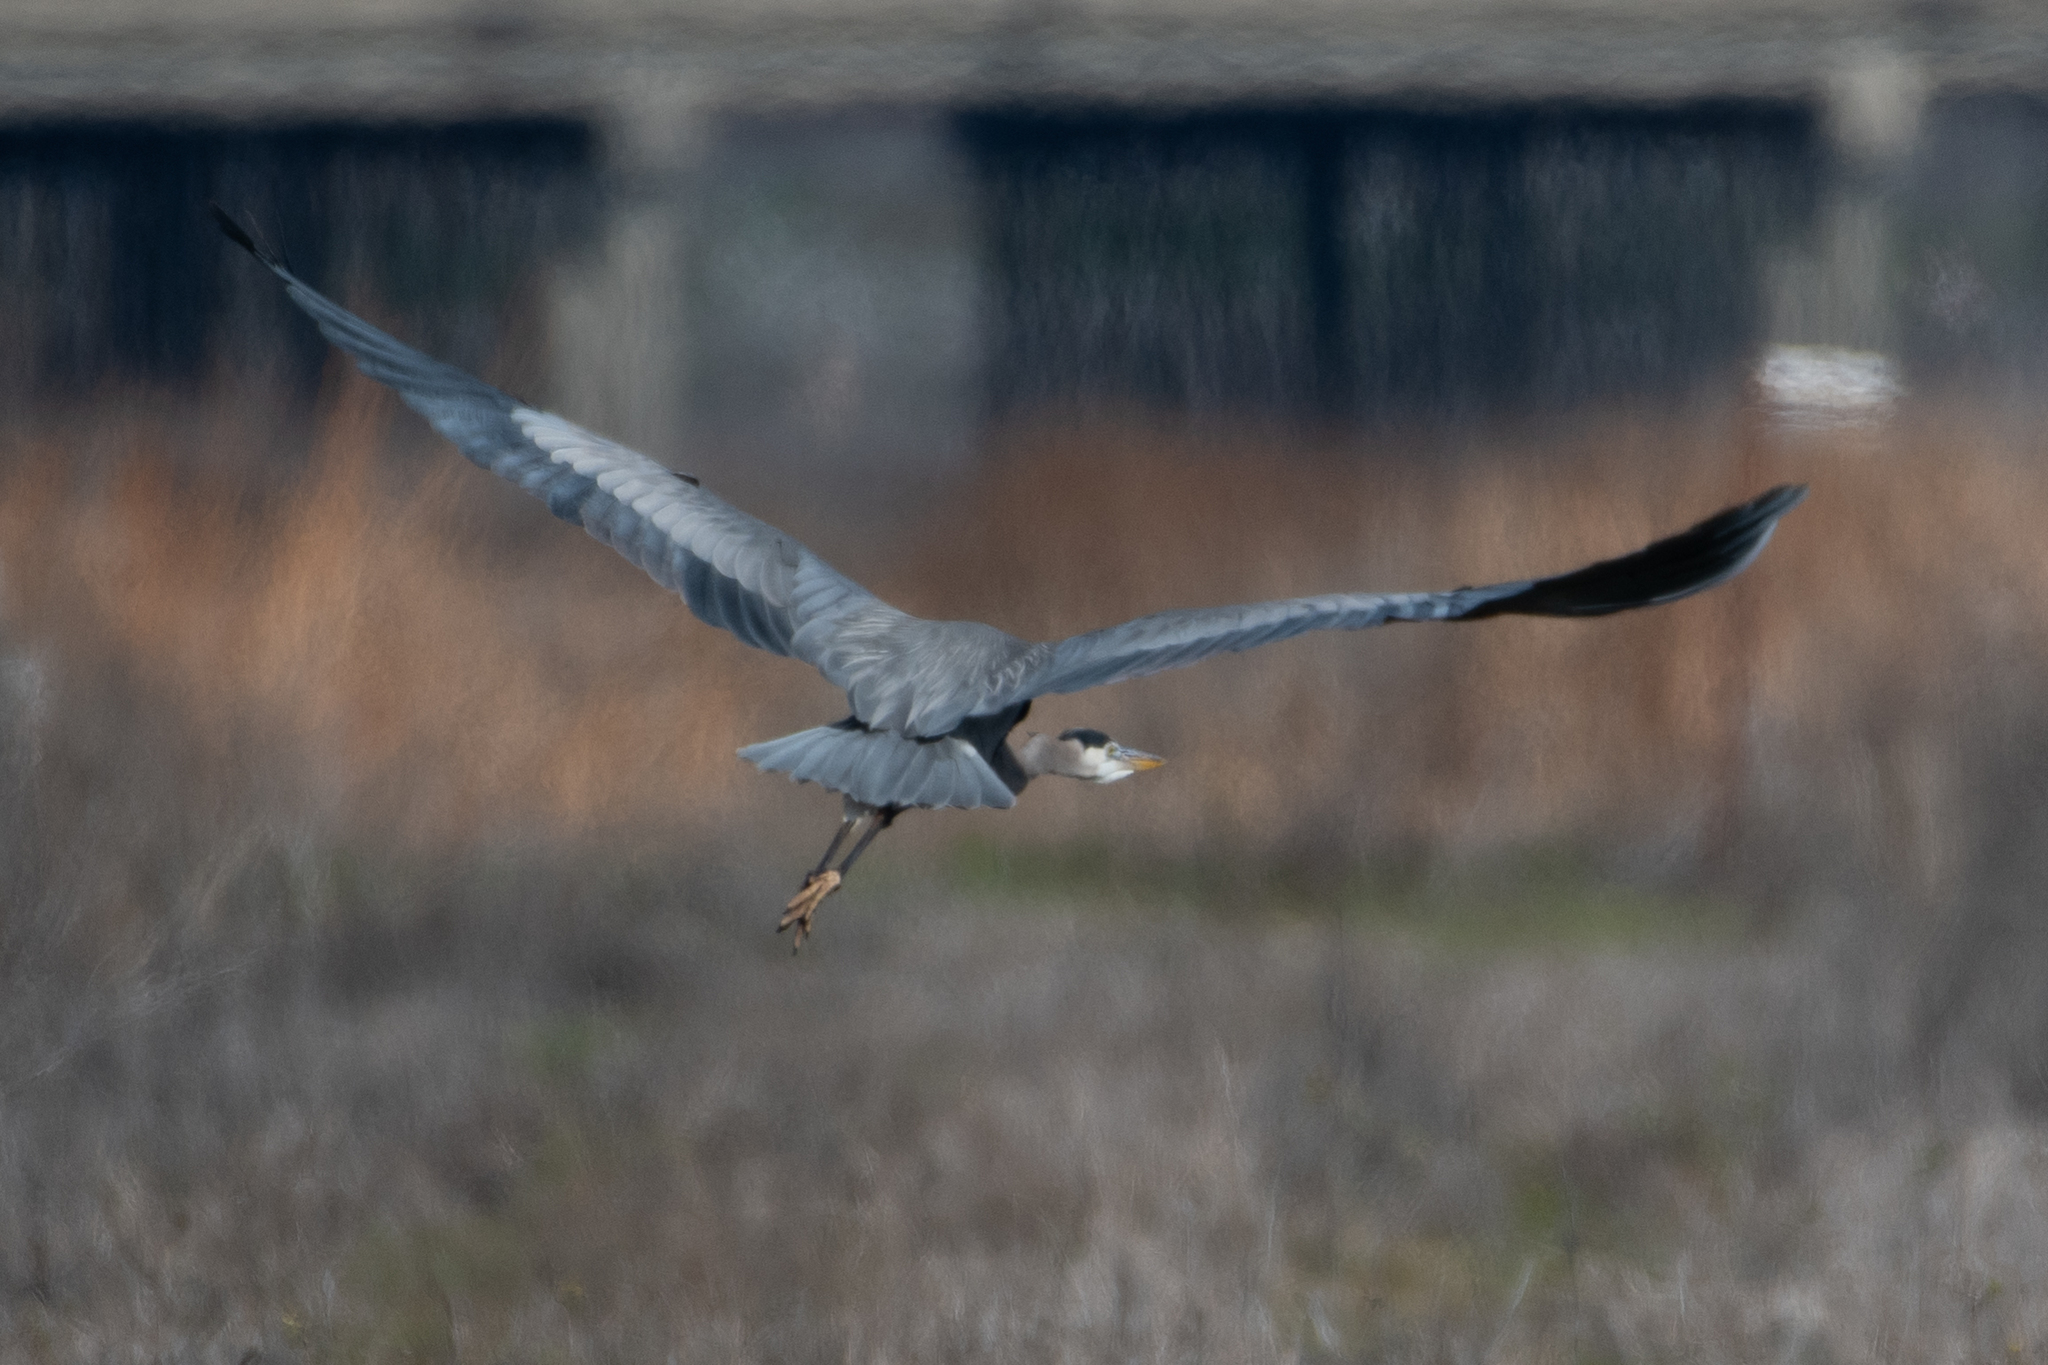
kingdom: Animalia
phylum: Chordata
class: Aves
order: Pelecaniformes
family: Ardeidae
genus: Ardea
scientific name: Ardea herodias
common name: Great blue heron
